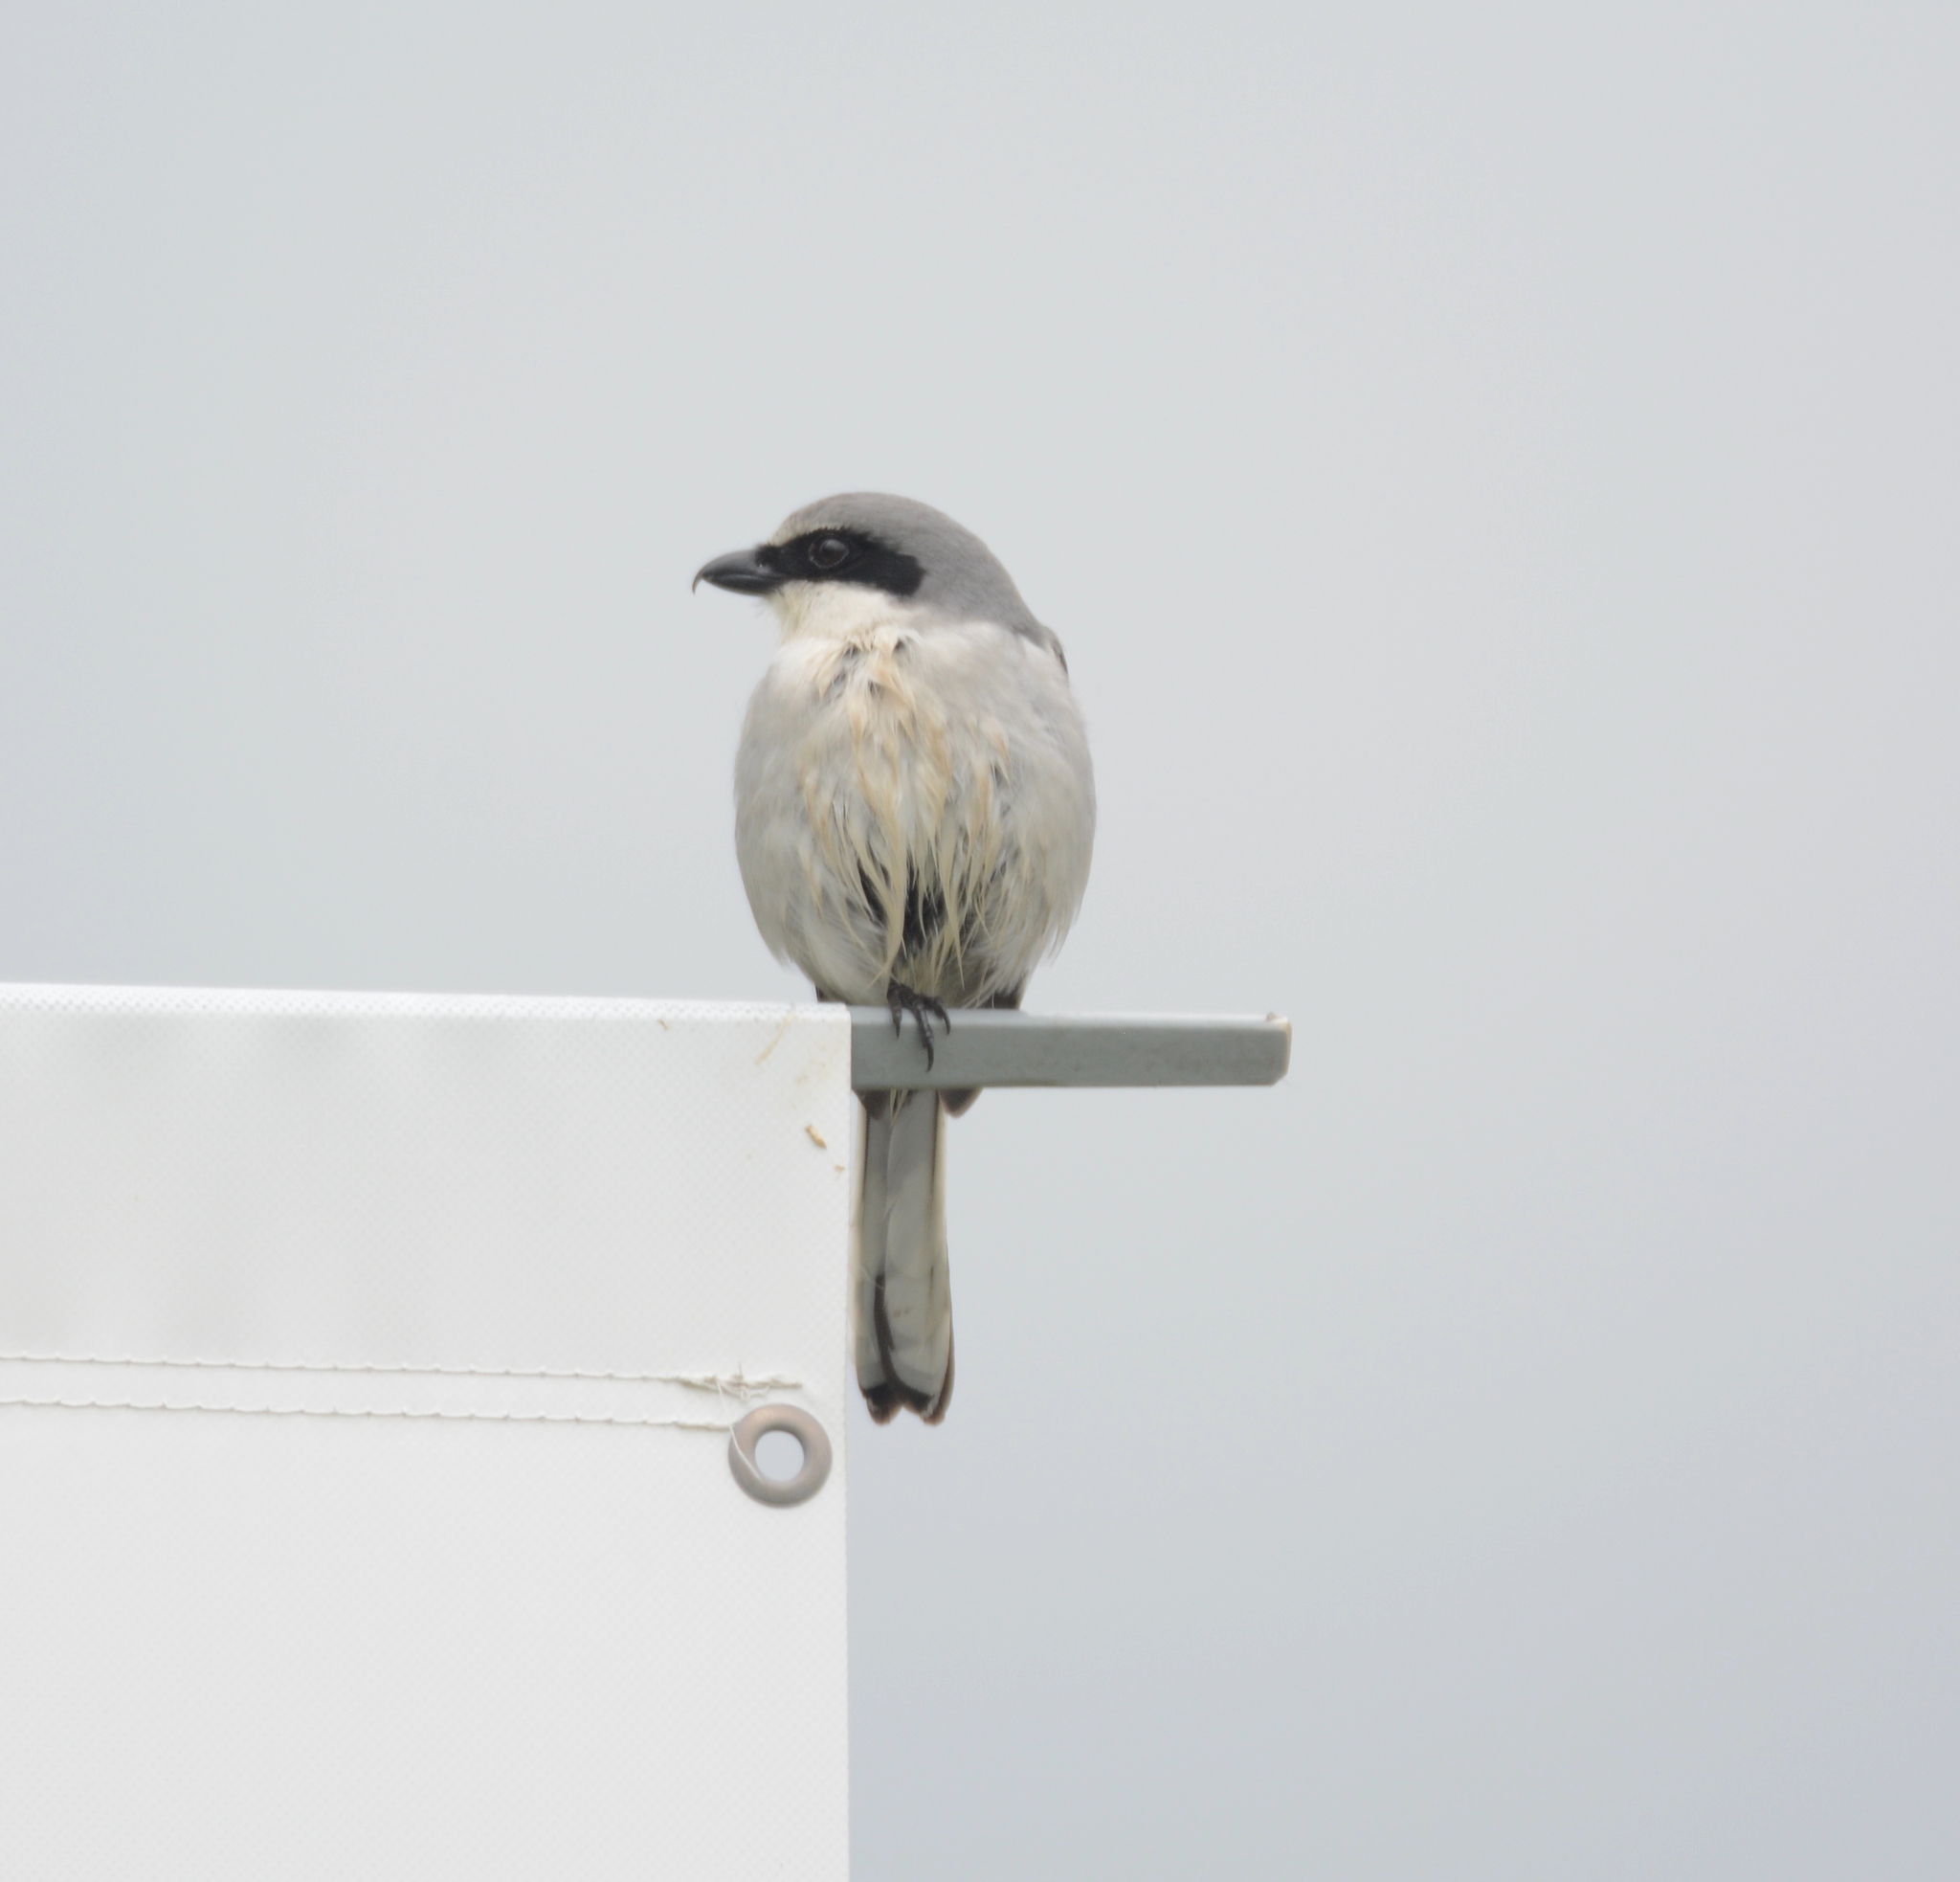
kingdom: Animalia
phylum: Chordata
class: Aves
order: Passeriformes
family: Laniidae
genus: Lanius
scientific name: Lanius ludovicianus
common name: Loggerhead shrike
